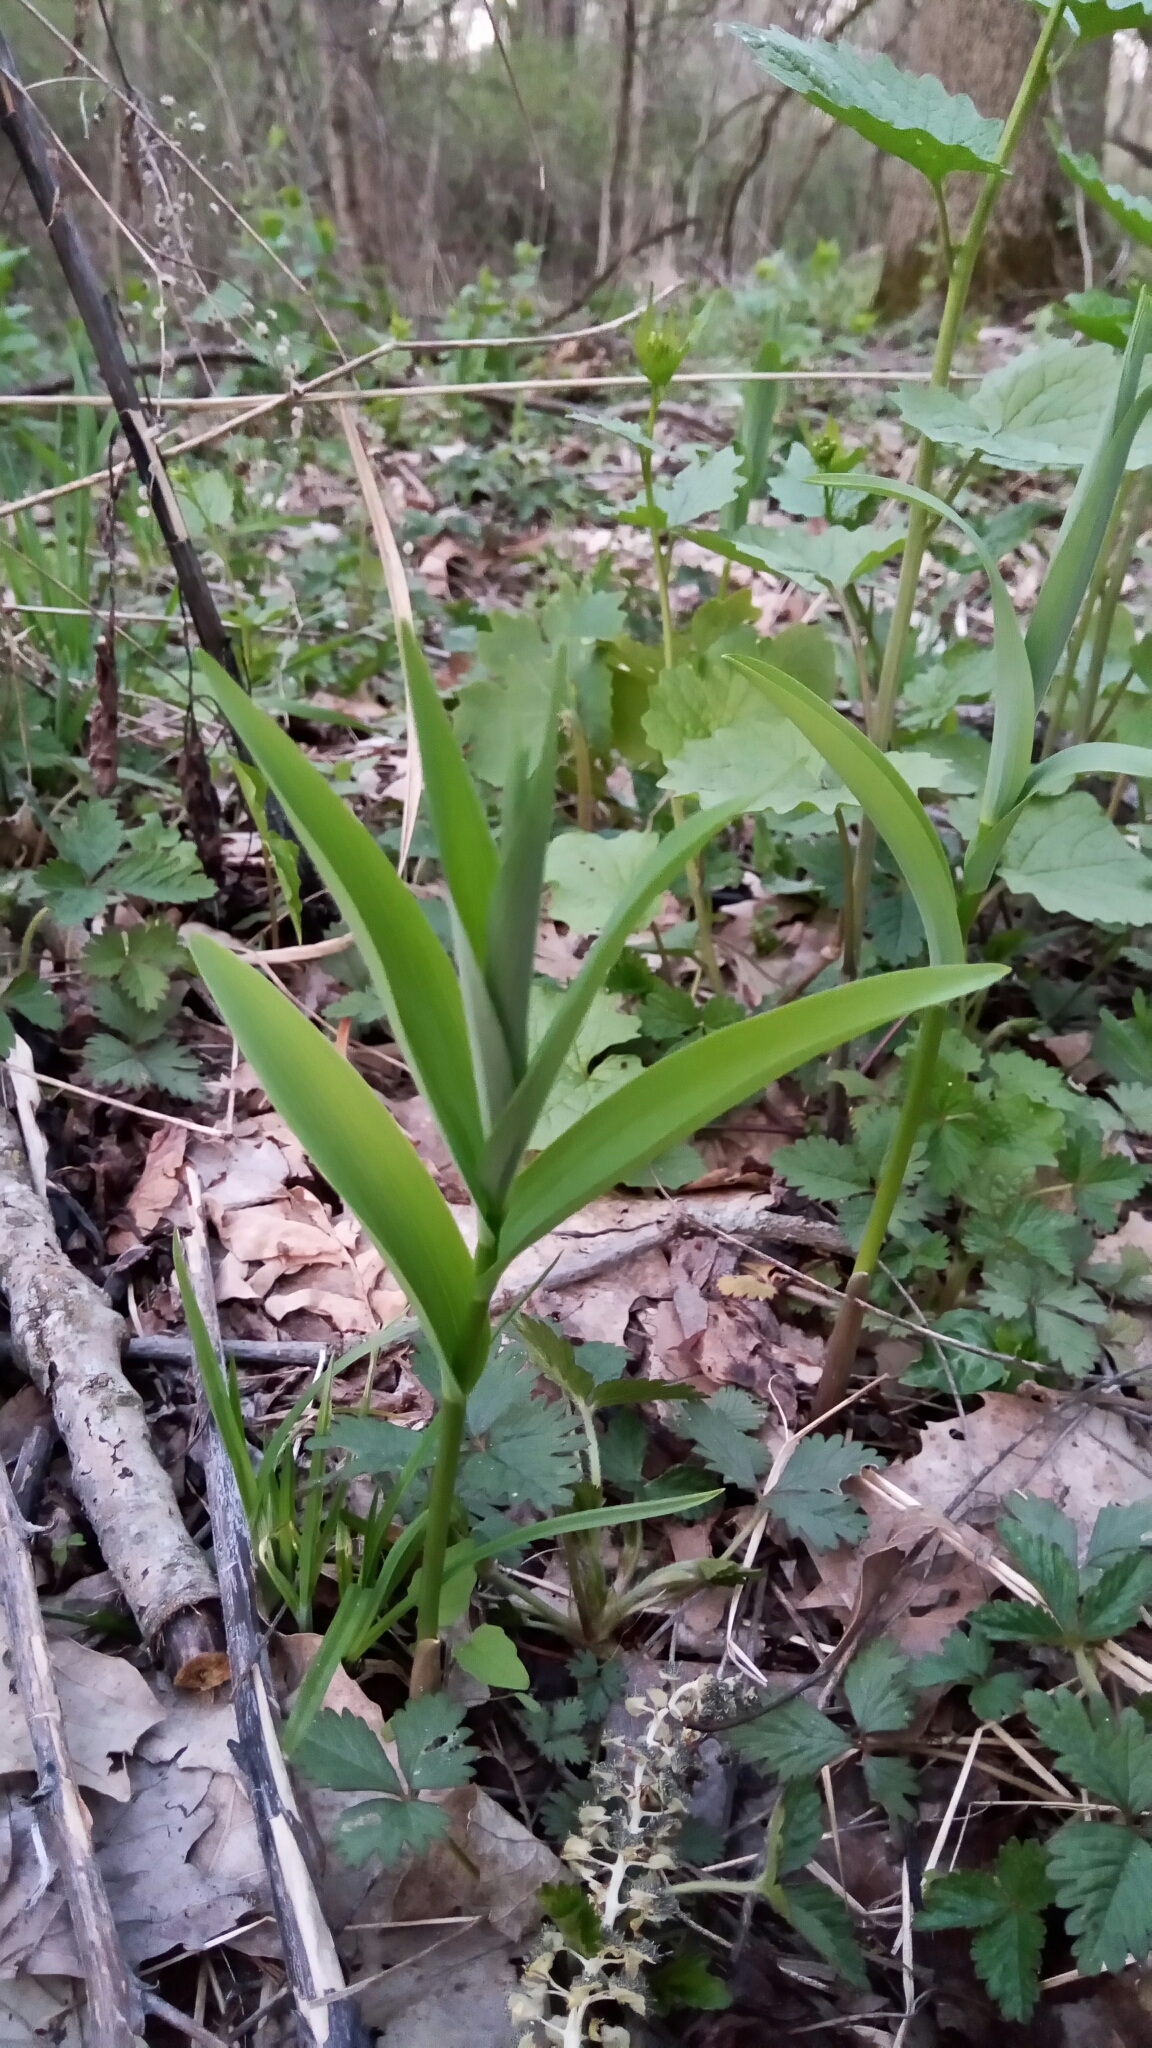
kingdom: Plantae
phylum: Tracheophyta
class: Liliopsida
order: Asparagales
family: Asparagaceae
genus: Maianthemum
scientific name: Maianthemum stellatum
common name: Little false solomon's seal
